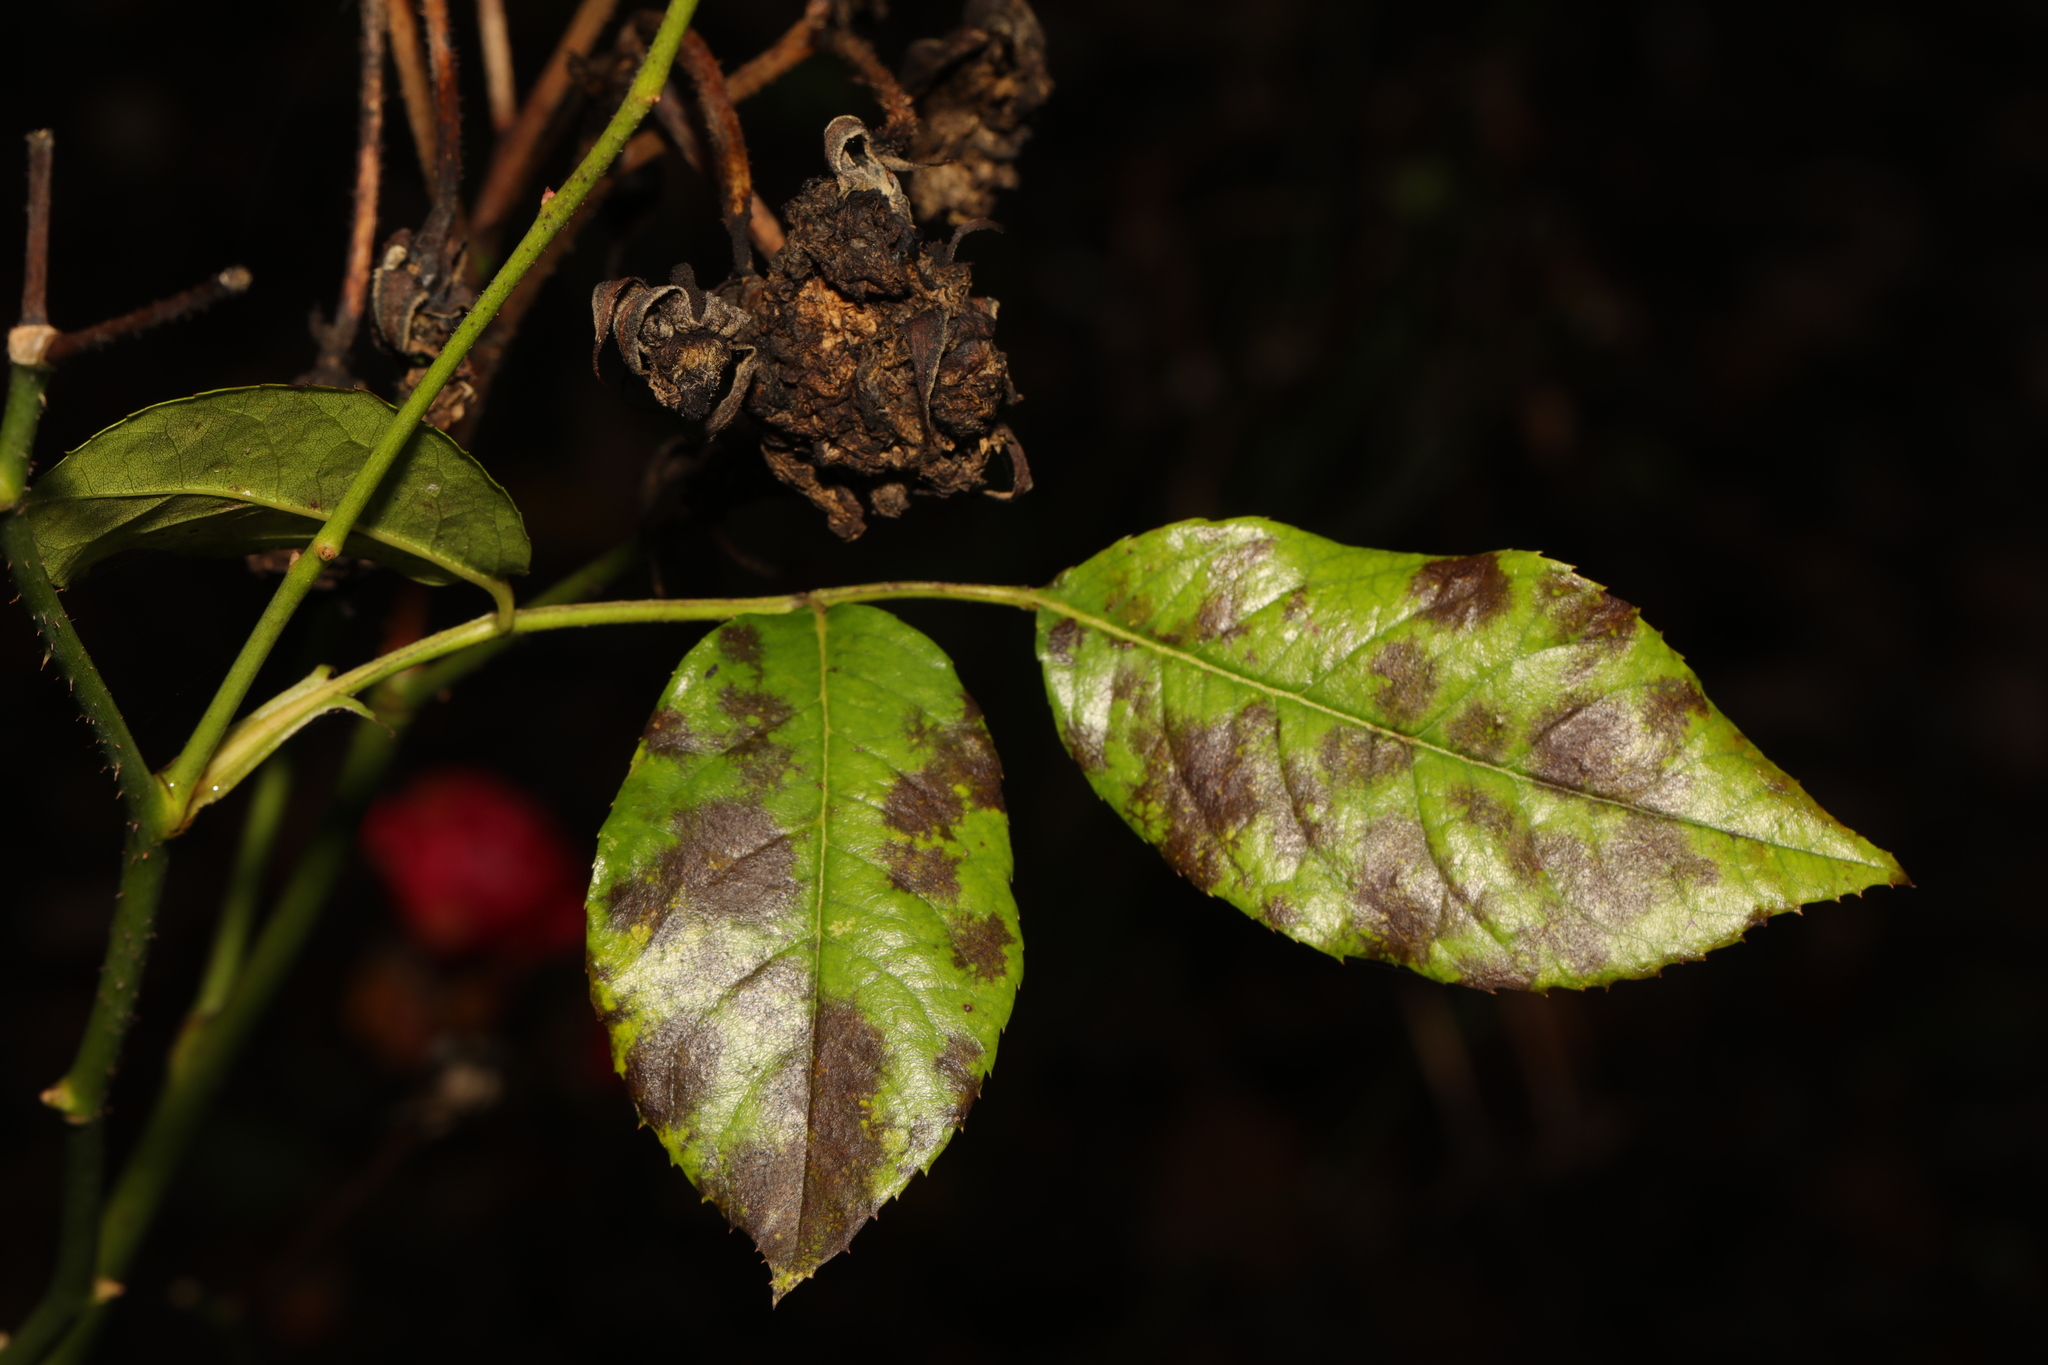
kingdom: Fungi
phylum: Ascomycota
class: Leotiomycetes
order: Helotiales
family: Drepanopezizaceae
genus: Diplocarpon
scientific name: Diplocarpon rosae
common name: Rose black-spot
